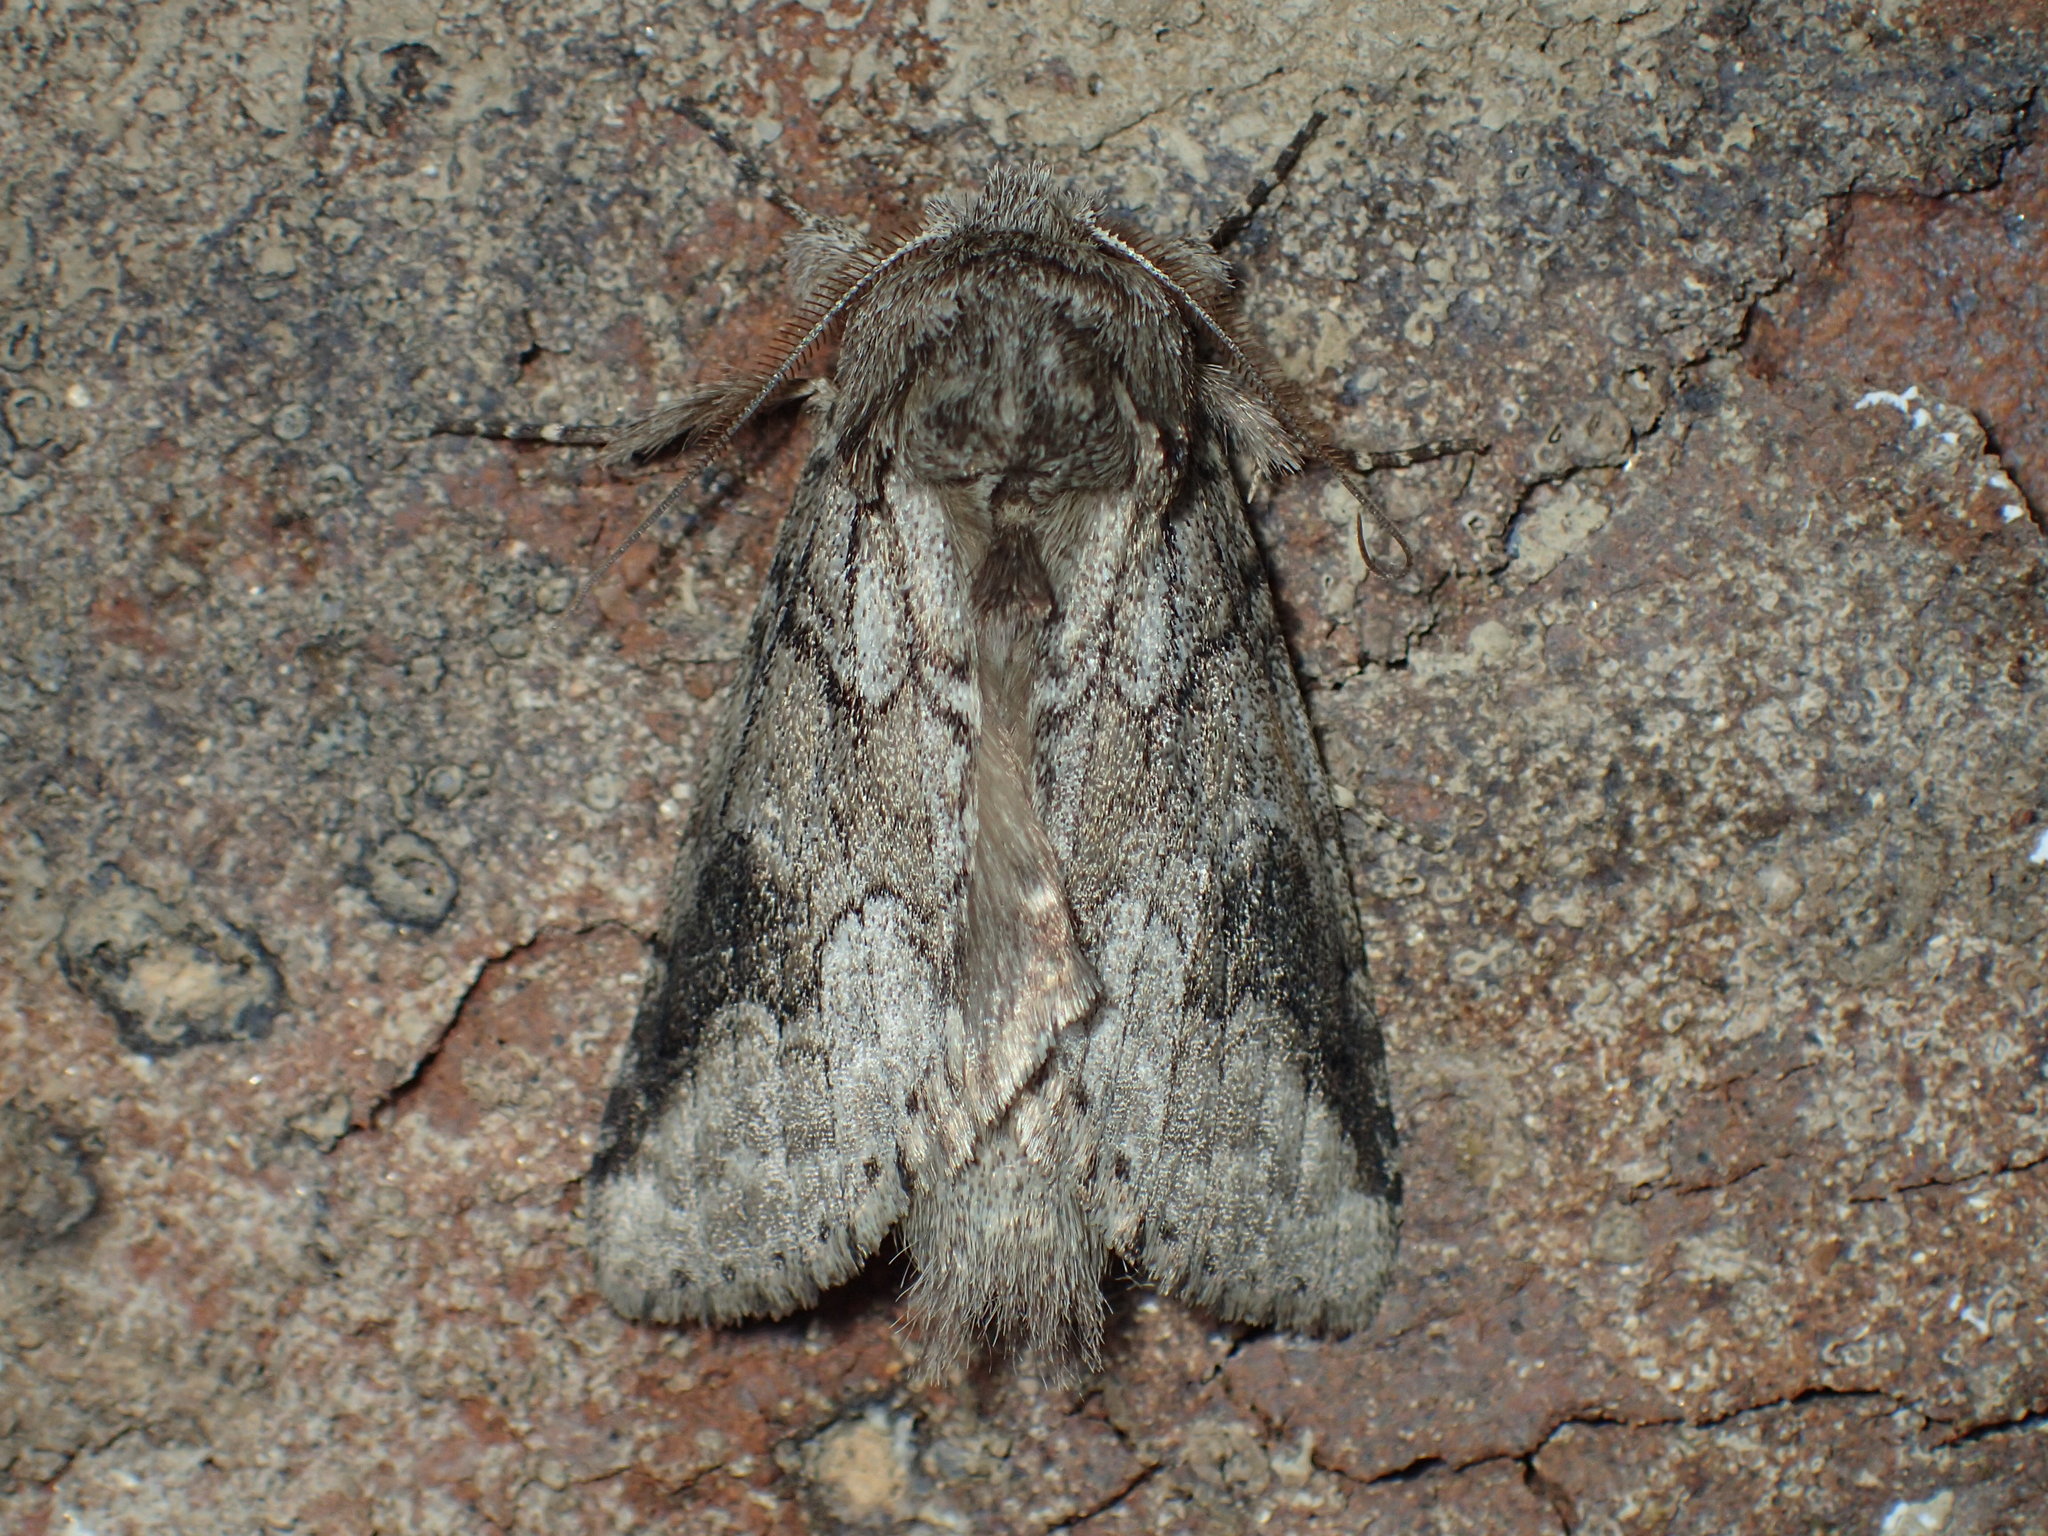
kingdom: Animalia
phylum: Arthropoda
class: Insecta
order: Lepidoptera
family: Notodontidae
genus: Lochmaeus
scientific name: Lochmaeus bilineata
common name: Double-lined prominent
